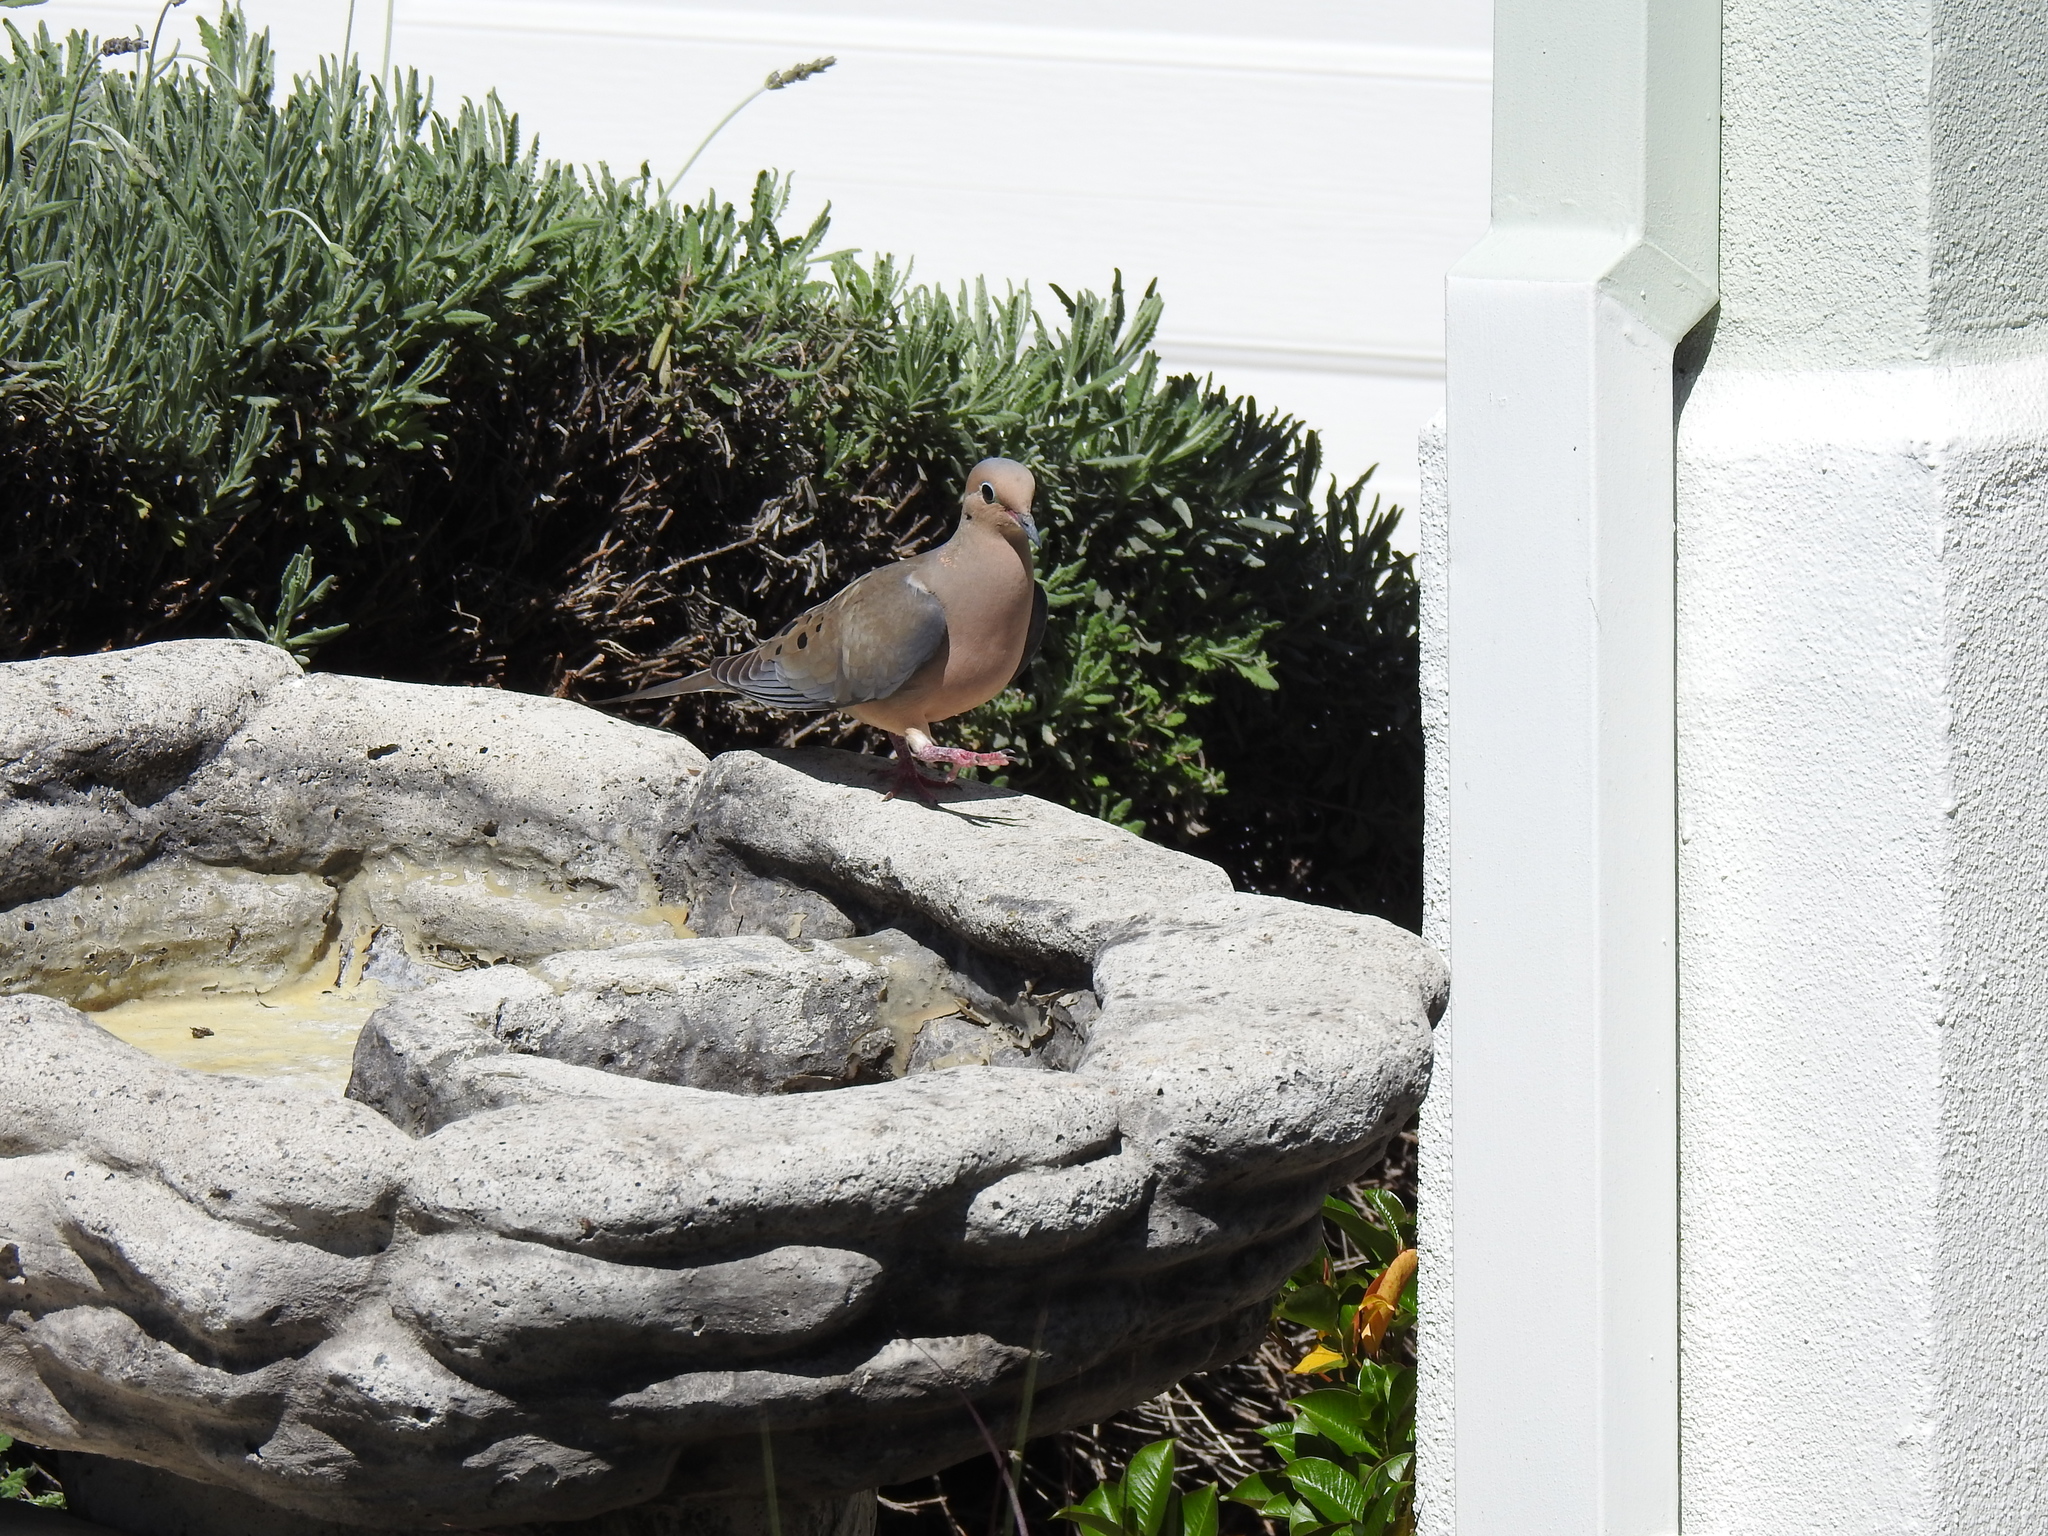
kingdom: Animalia
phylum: Chordata
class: Aves
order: Columbiformes
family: Columbidae
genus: Zenaida
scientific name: Zenaida macroura
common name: Mourning dove
